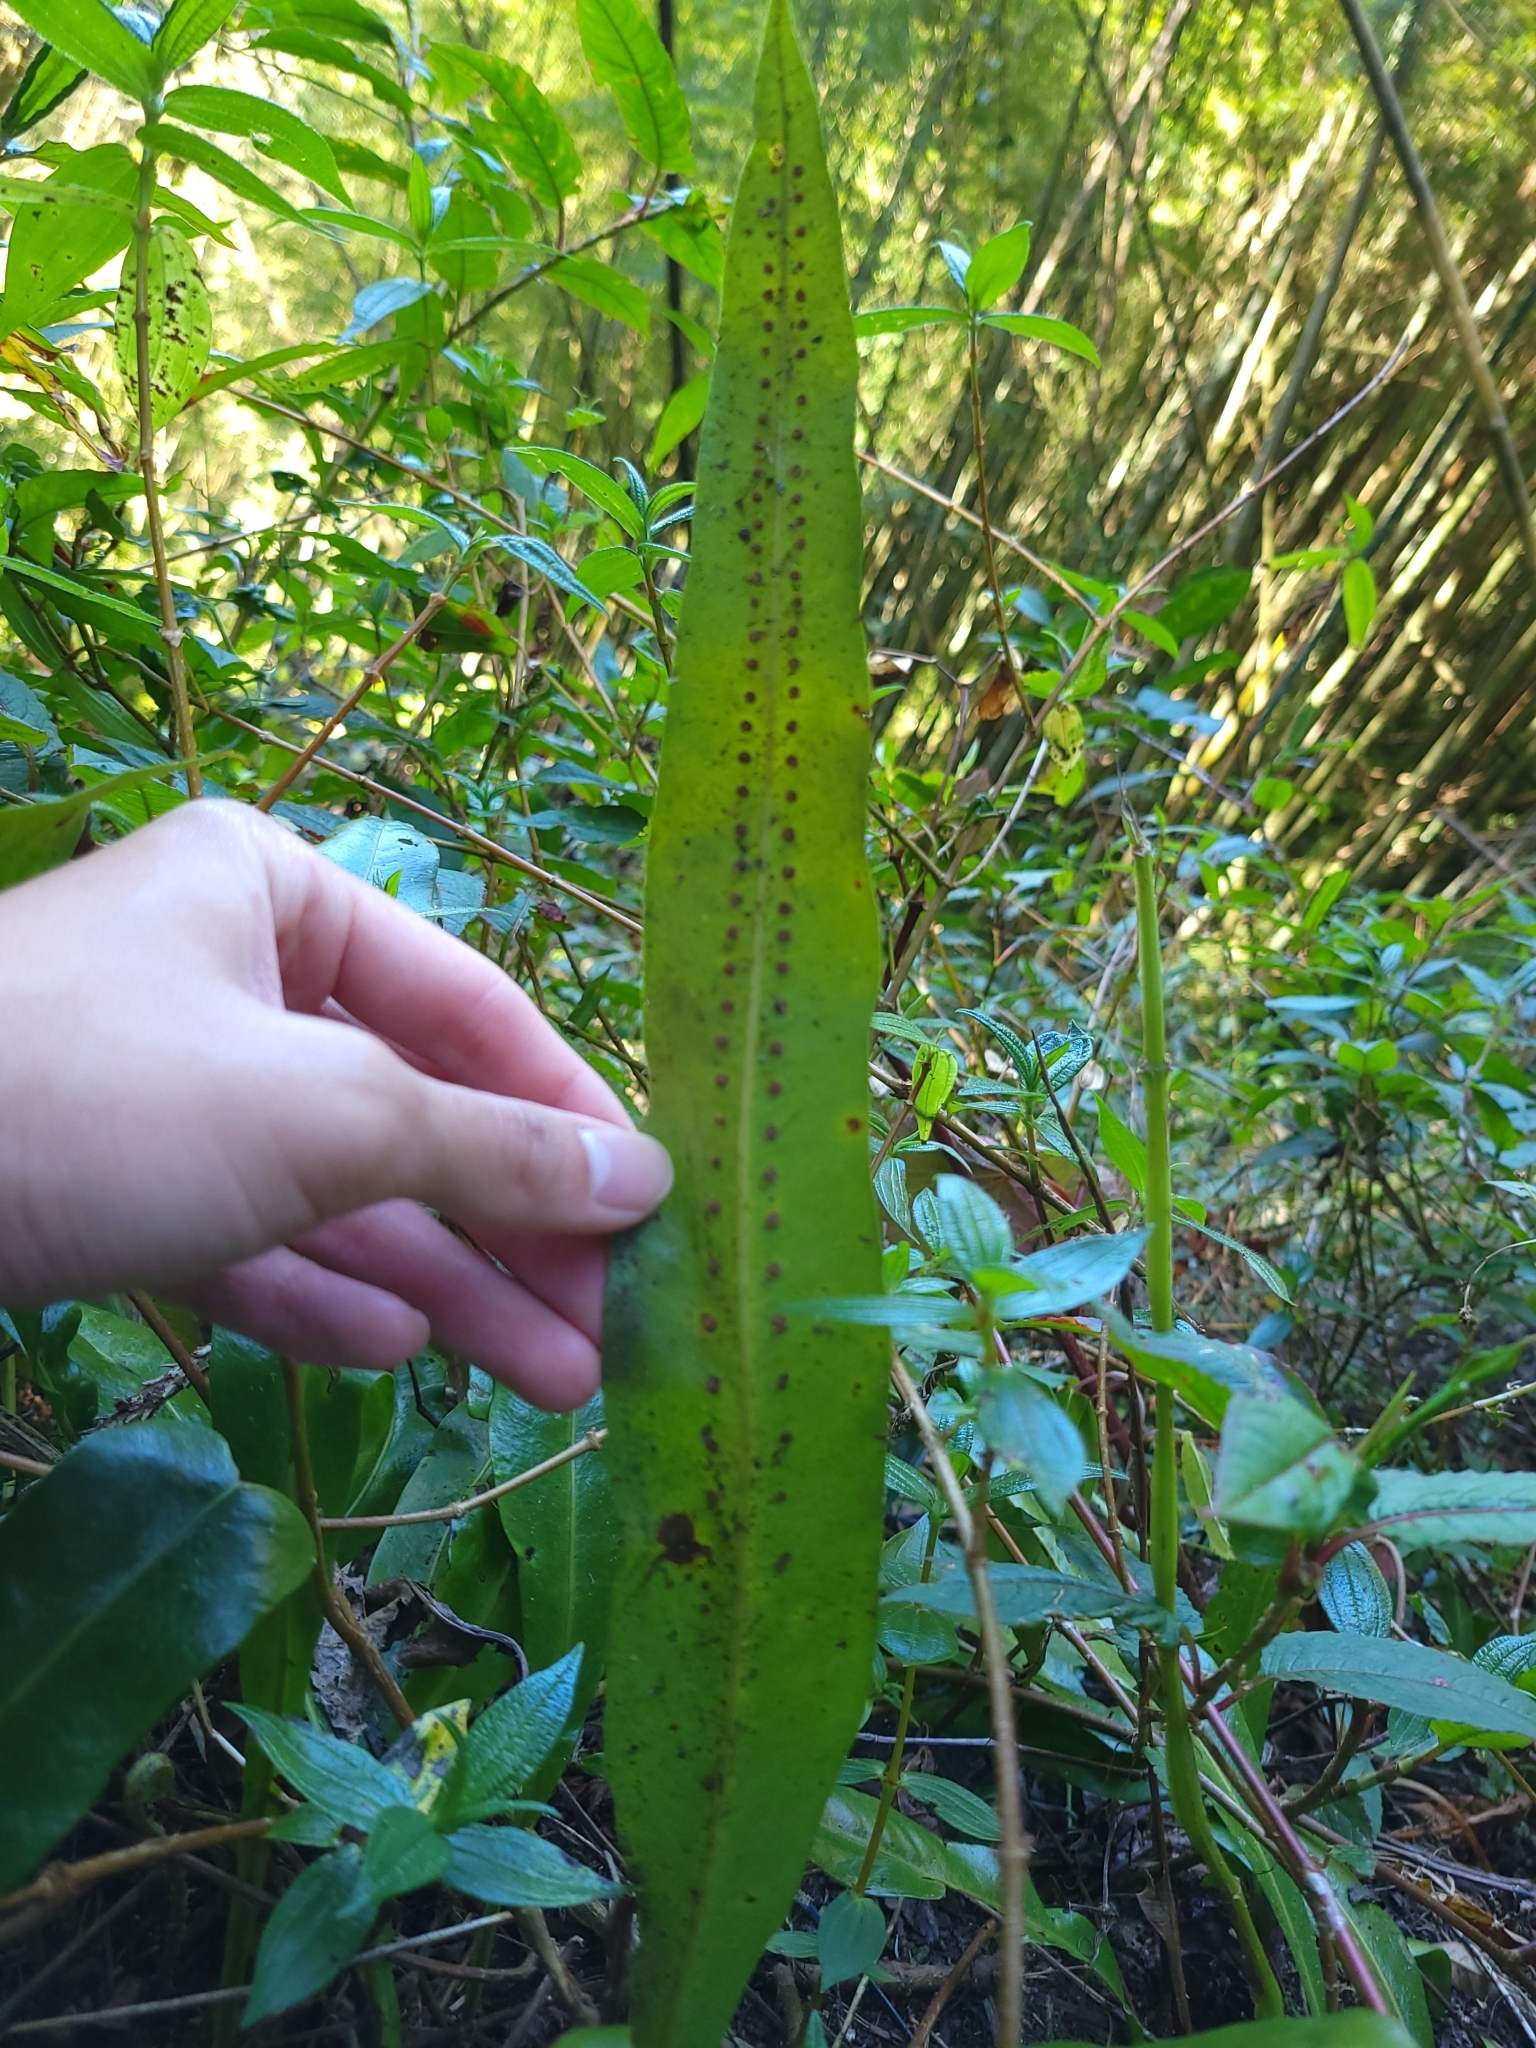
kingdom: Plantae
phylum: Tracheophyta
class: Polypodiopsida
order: Polypodiales
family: Polypodiaceae
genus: Lepisorus
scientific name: Lepisorus fortuni
